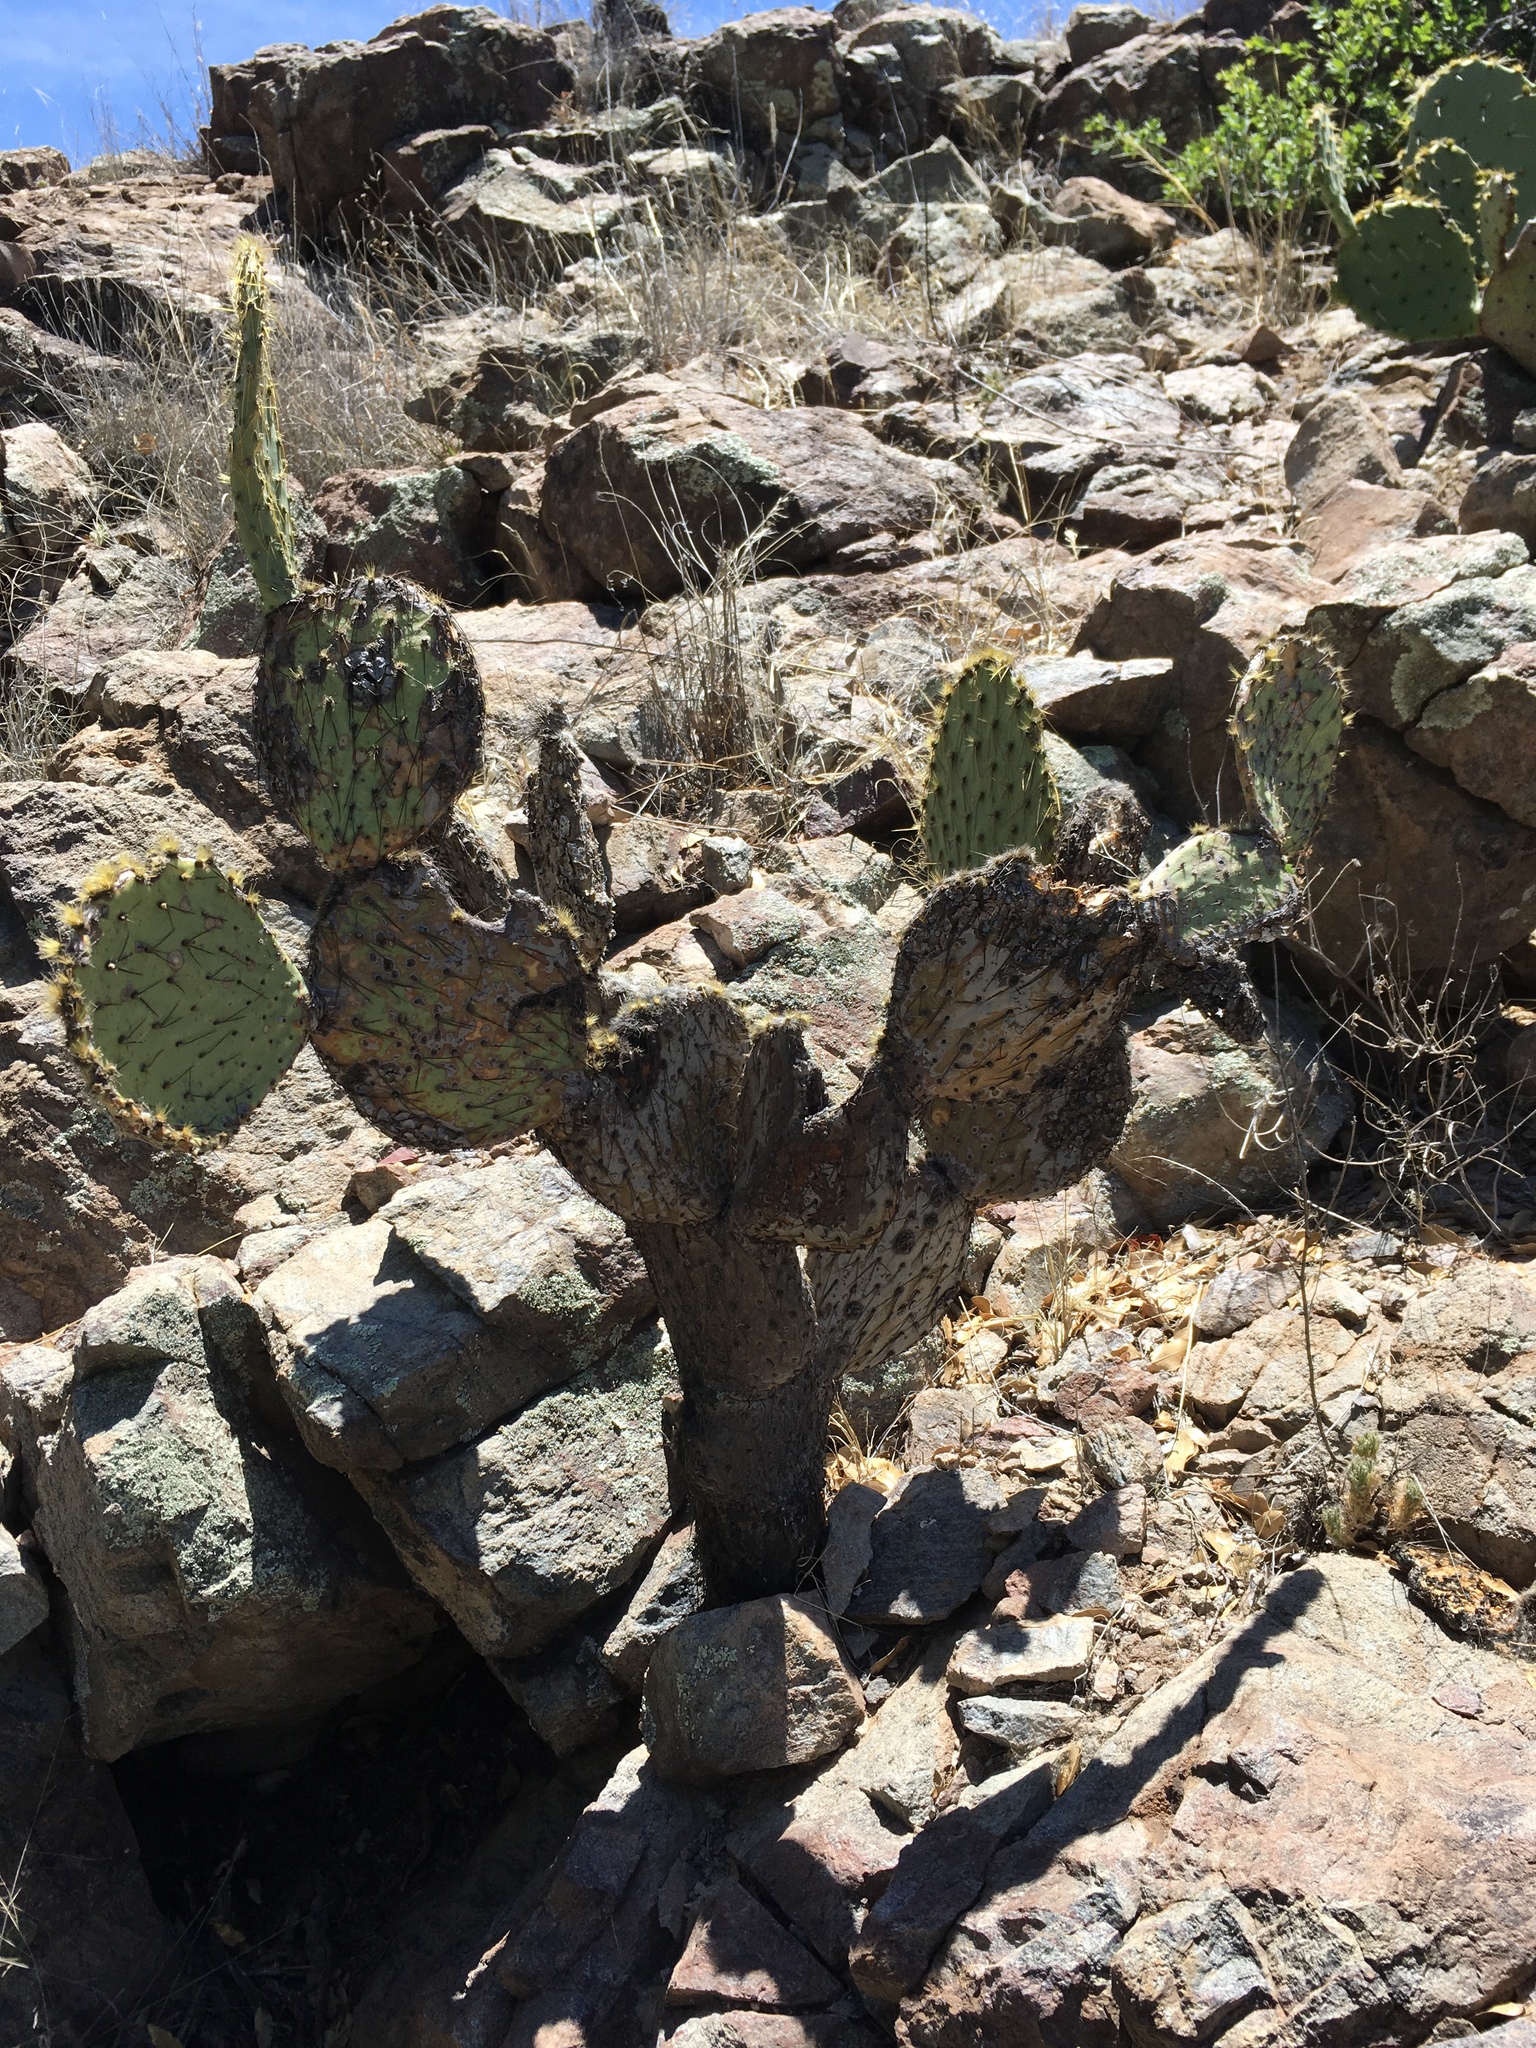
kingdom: Plantae
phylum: Tracheophyta
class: Magnoliopsida
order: Caryophyllales
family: Cactaceae
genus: Opuntia
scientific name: Opuntia chlorotica
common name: Dollar-joint prickly-pear
